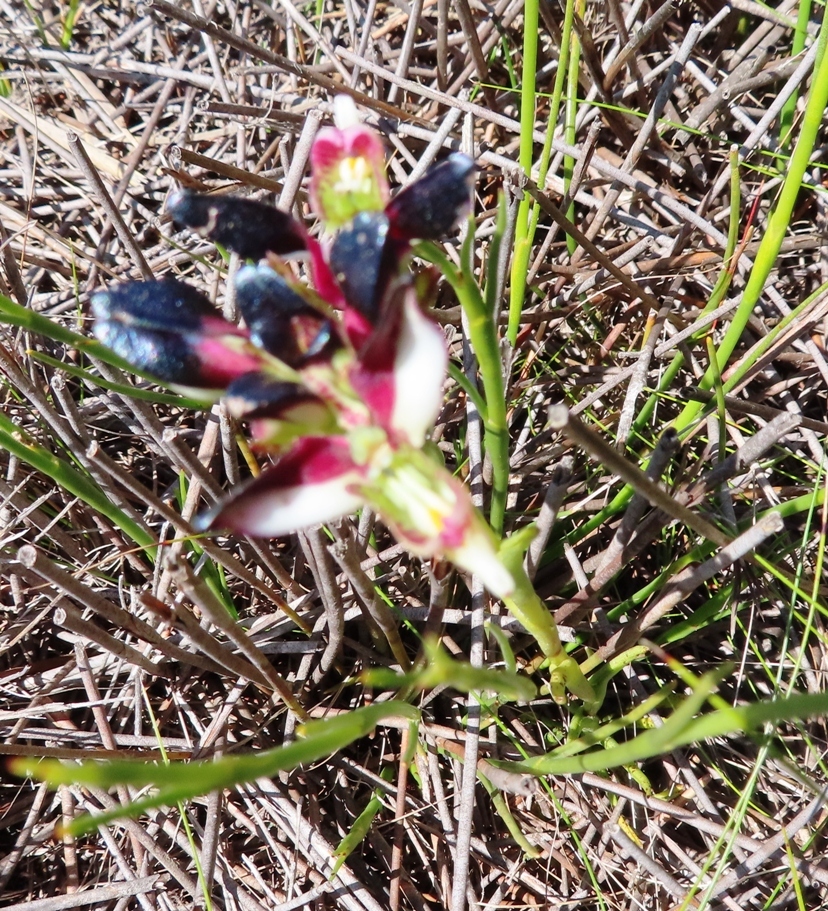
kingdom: Plantae
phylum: Tracheophyta
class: Liliopsida
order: Asparagales
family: Orchidaceae
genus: Disa
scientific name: Disa atricapilla
